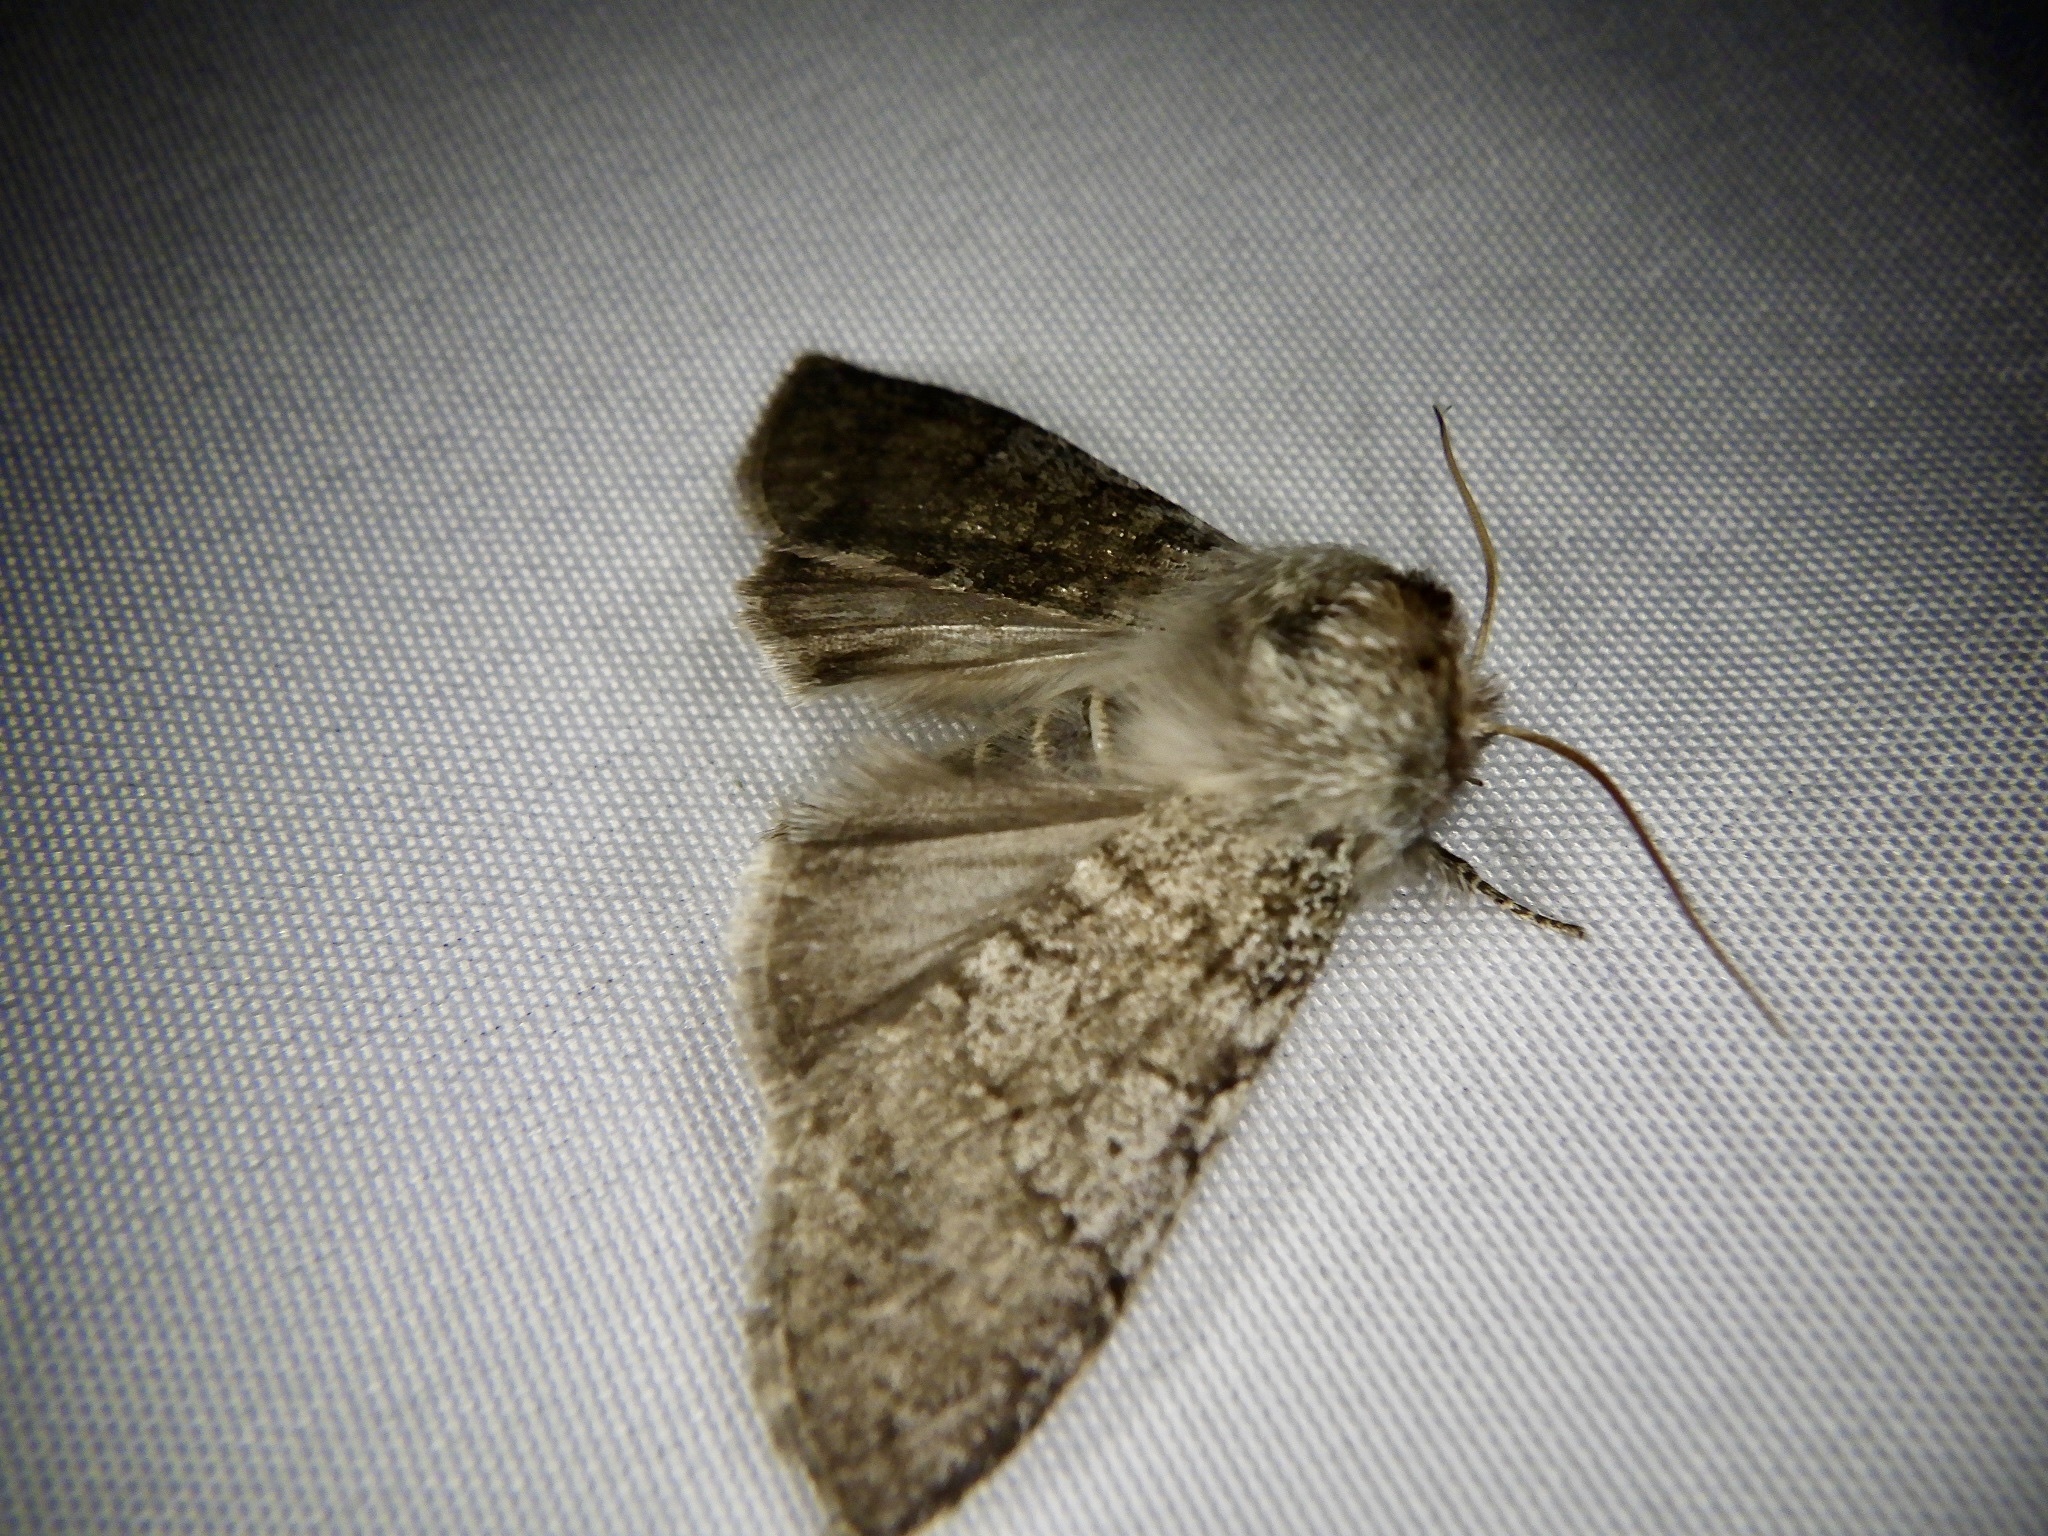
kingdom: Animalia
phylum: Arthropoda
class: Insecta
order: Lepidoptera
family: Drepanidae
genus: Achlya
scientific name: Achlya kuramana
